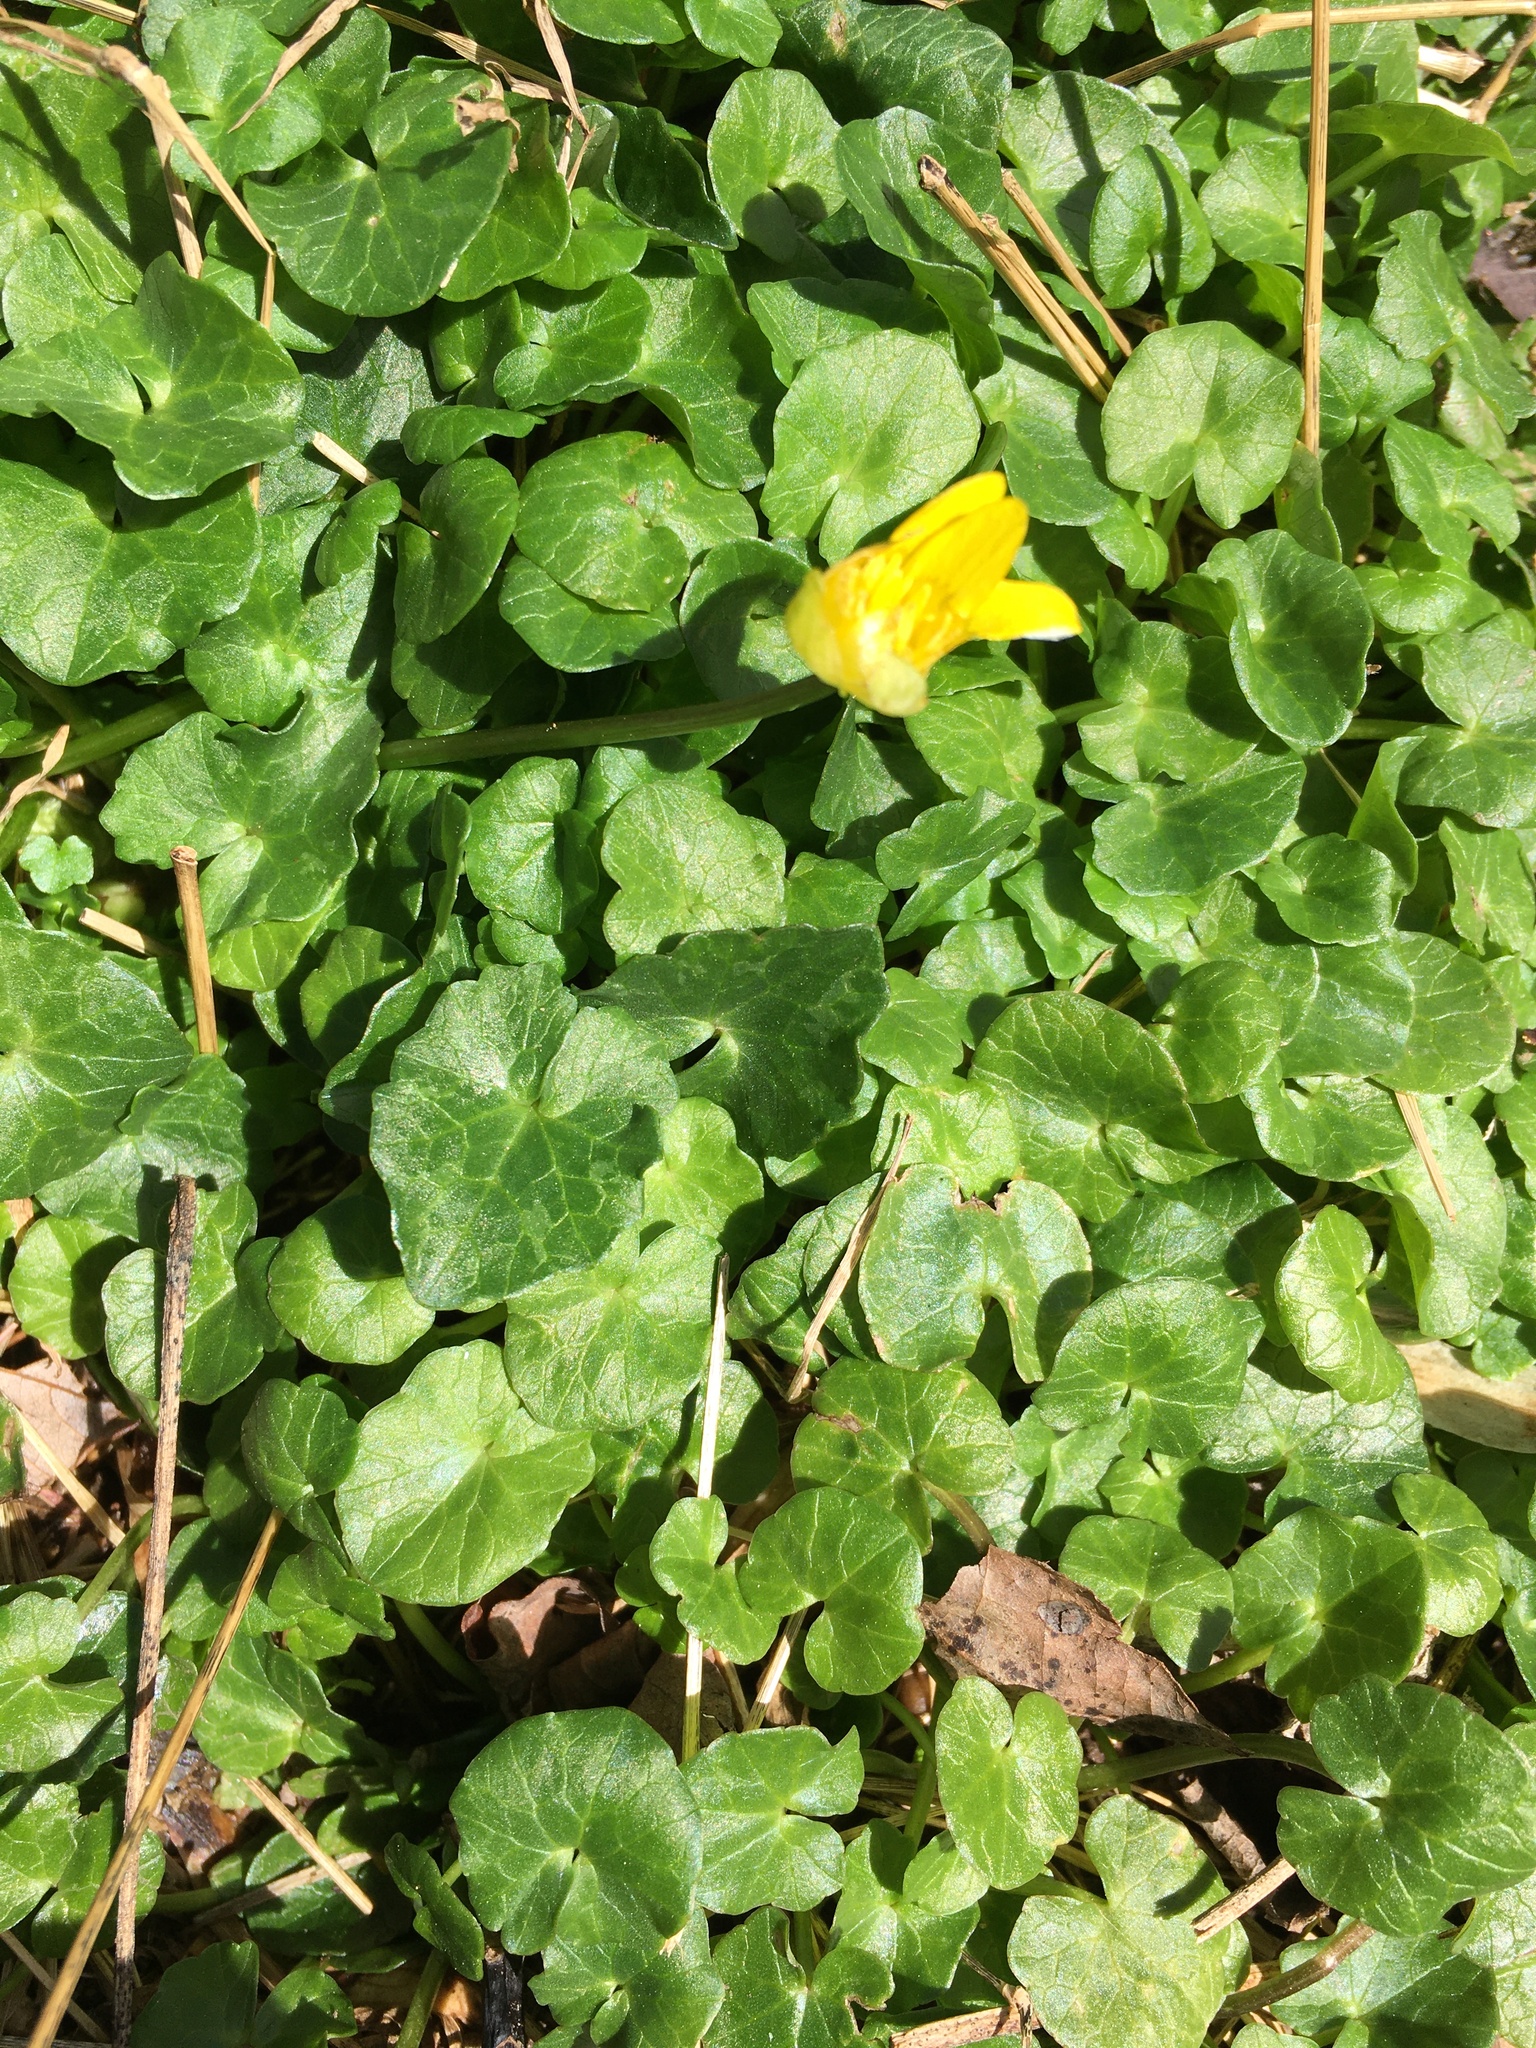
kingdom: Plantae
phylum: Tracheophyta
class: Magnoliopsida
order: Ranunculales
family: Ranunculaceae
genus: Ficaria
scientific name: Ficaria verna
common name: Lesser celandine
